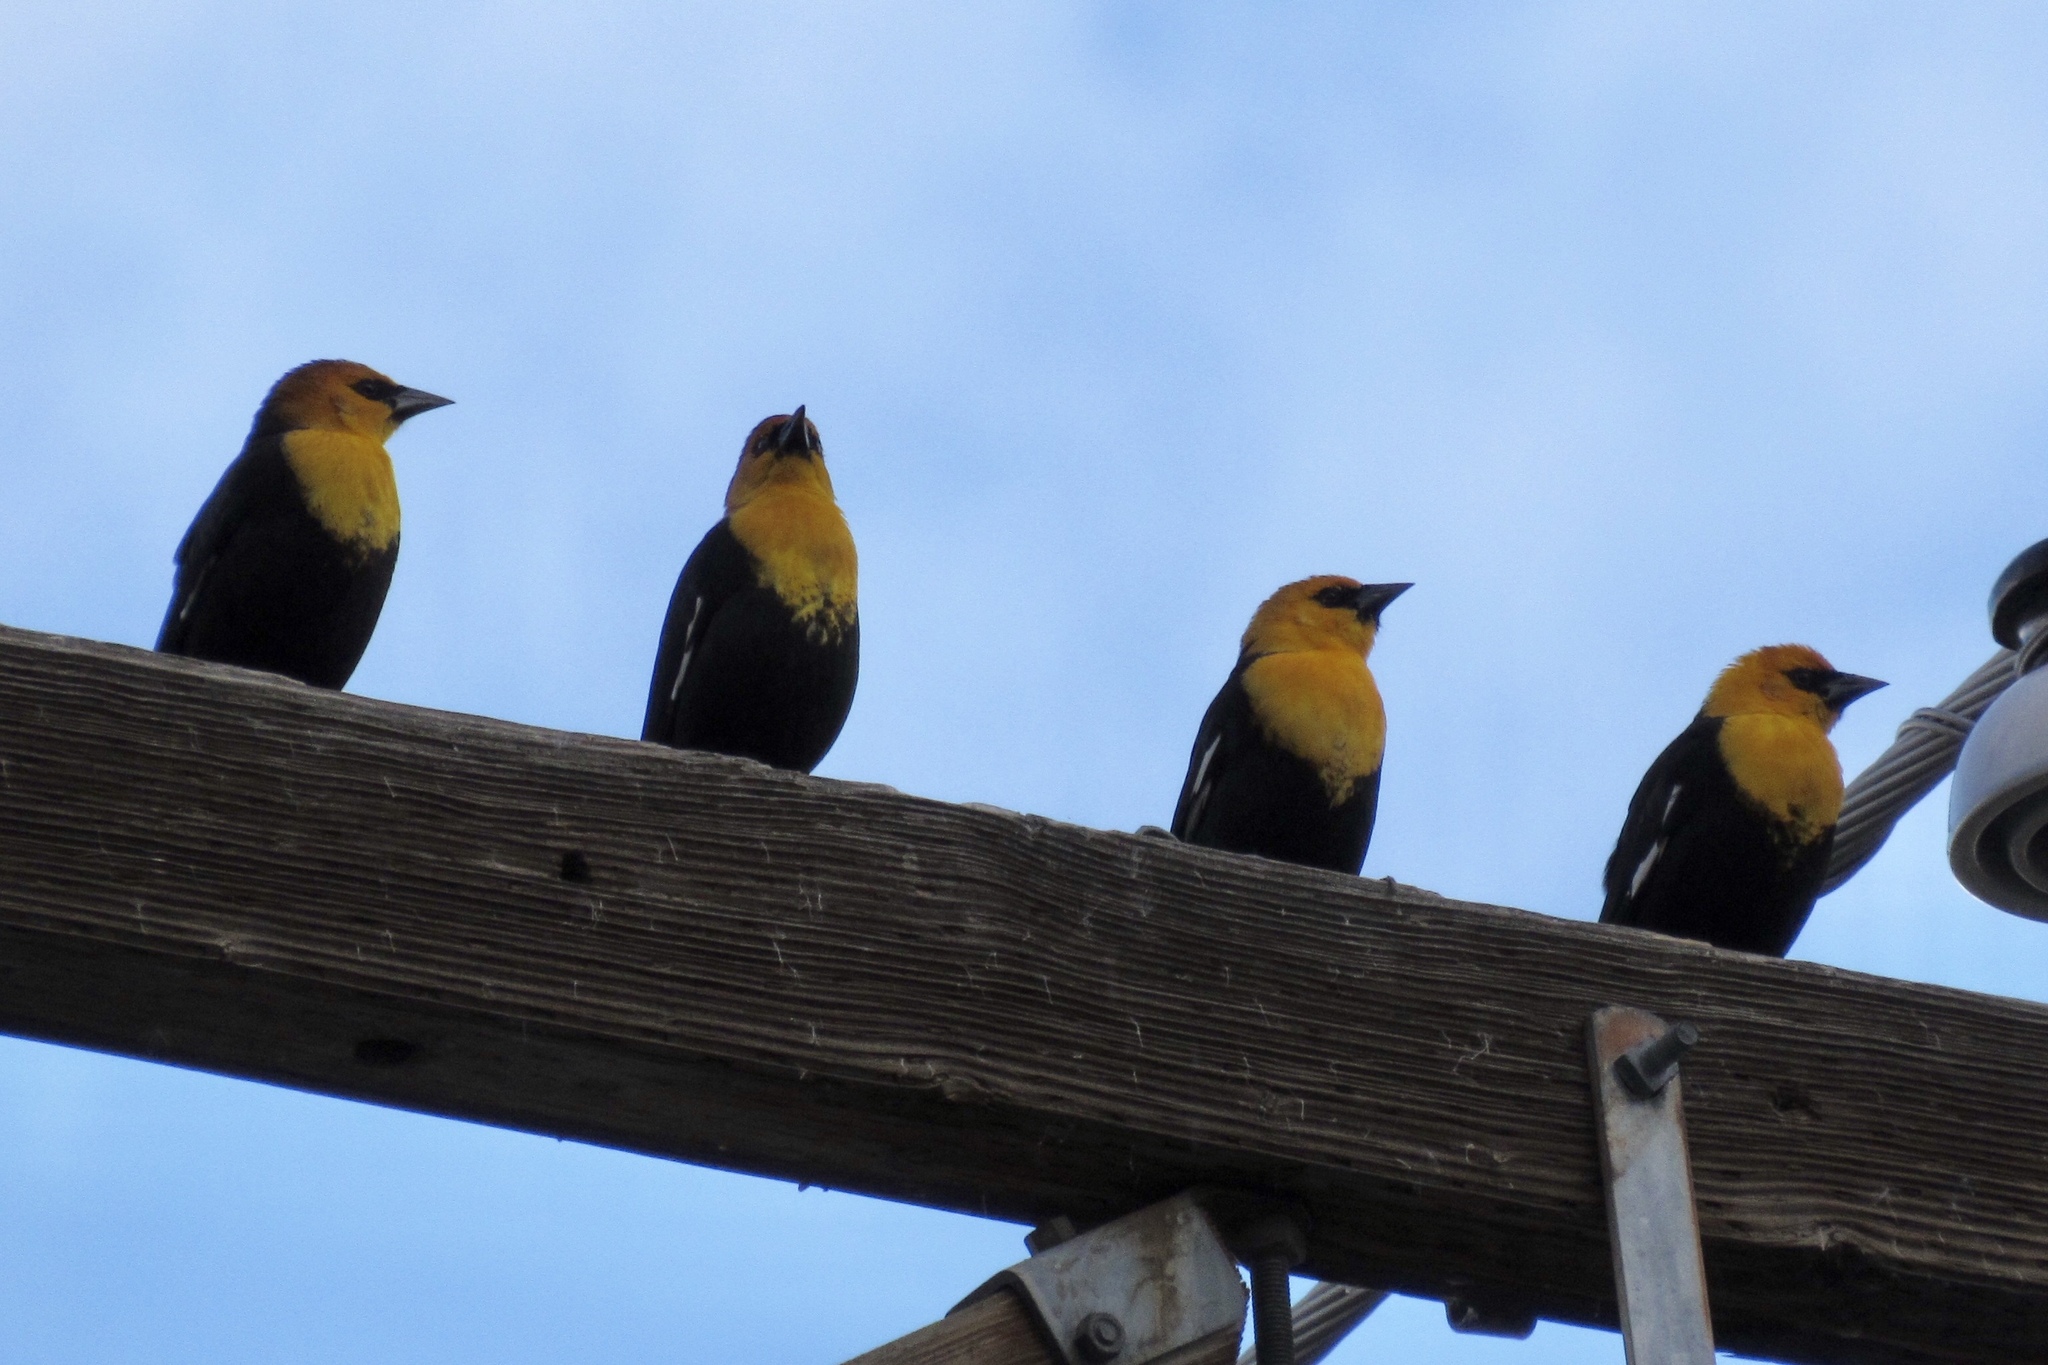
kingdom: Animalia
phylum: Chordata
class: Aves
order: Passeriformes
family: Icteridae
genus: Xanthocephalus
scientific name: Xanthocephalus xanthocephalus
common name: Yellow-headed blackbird
